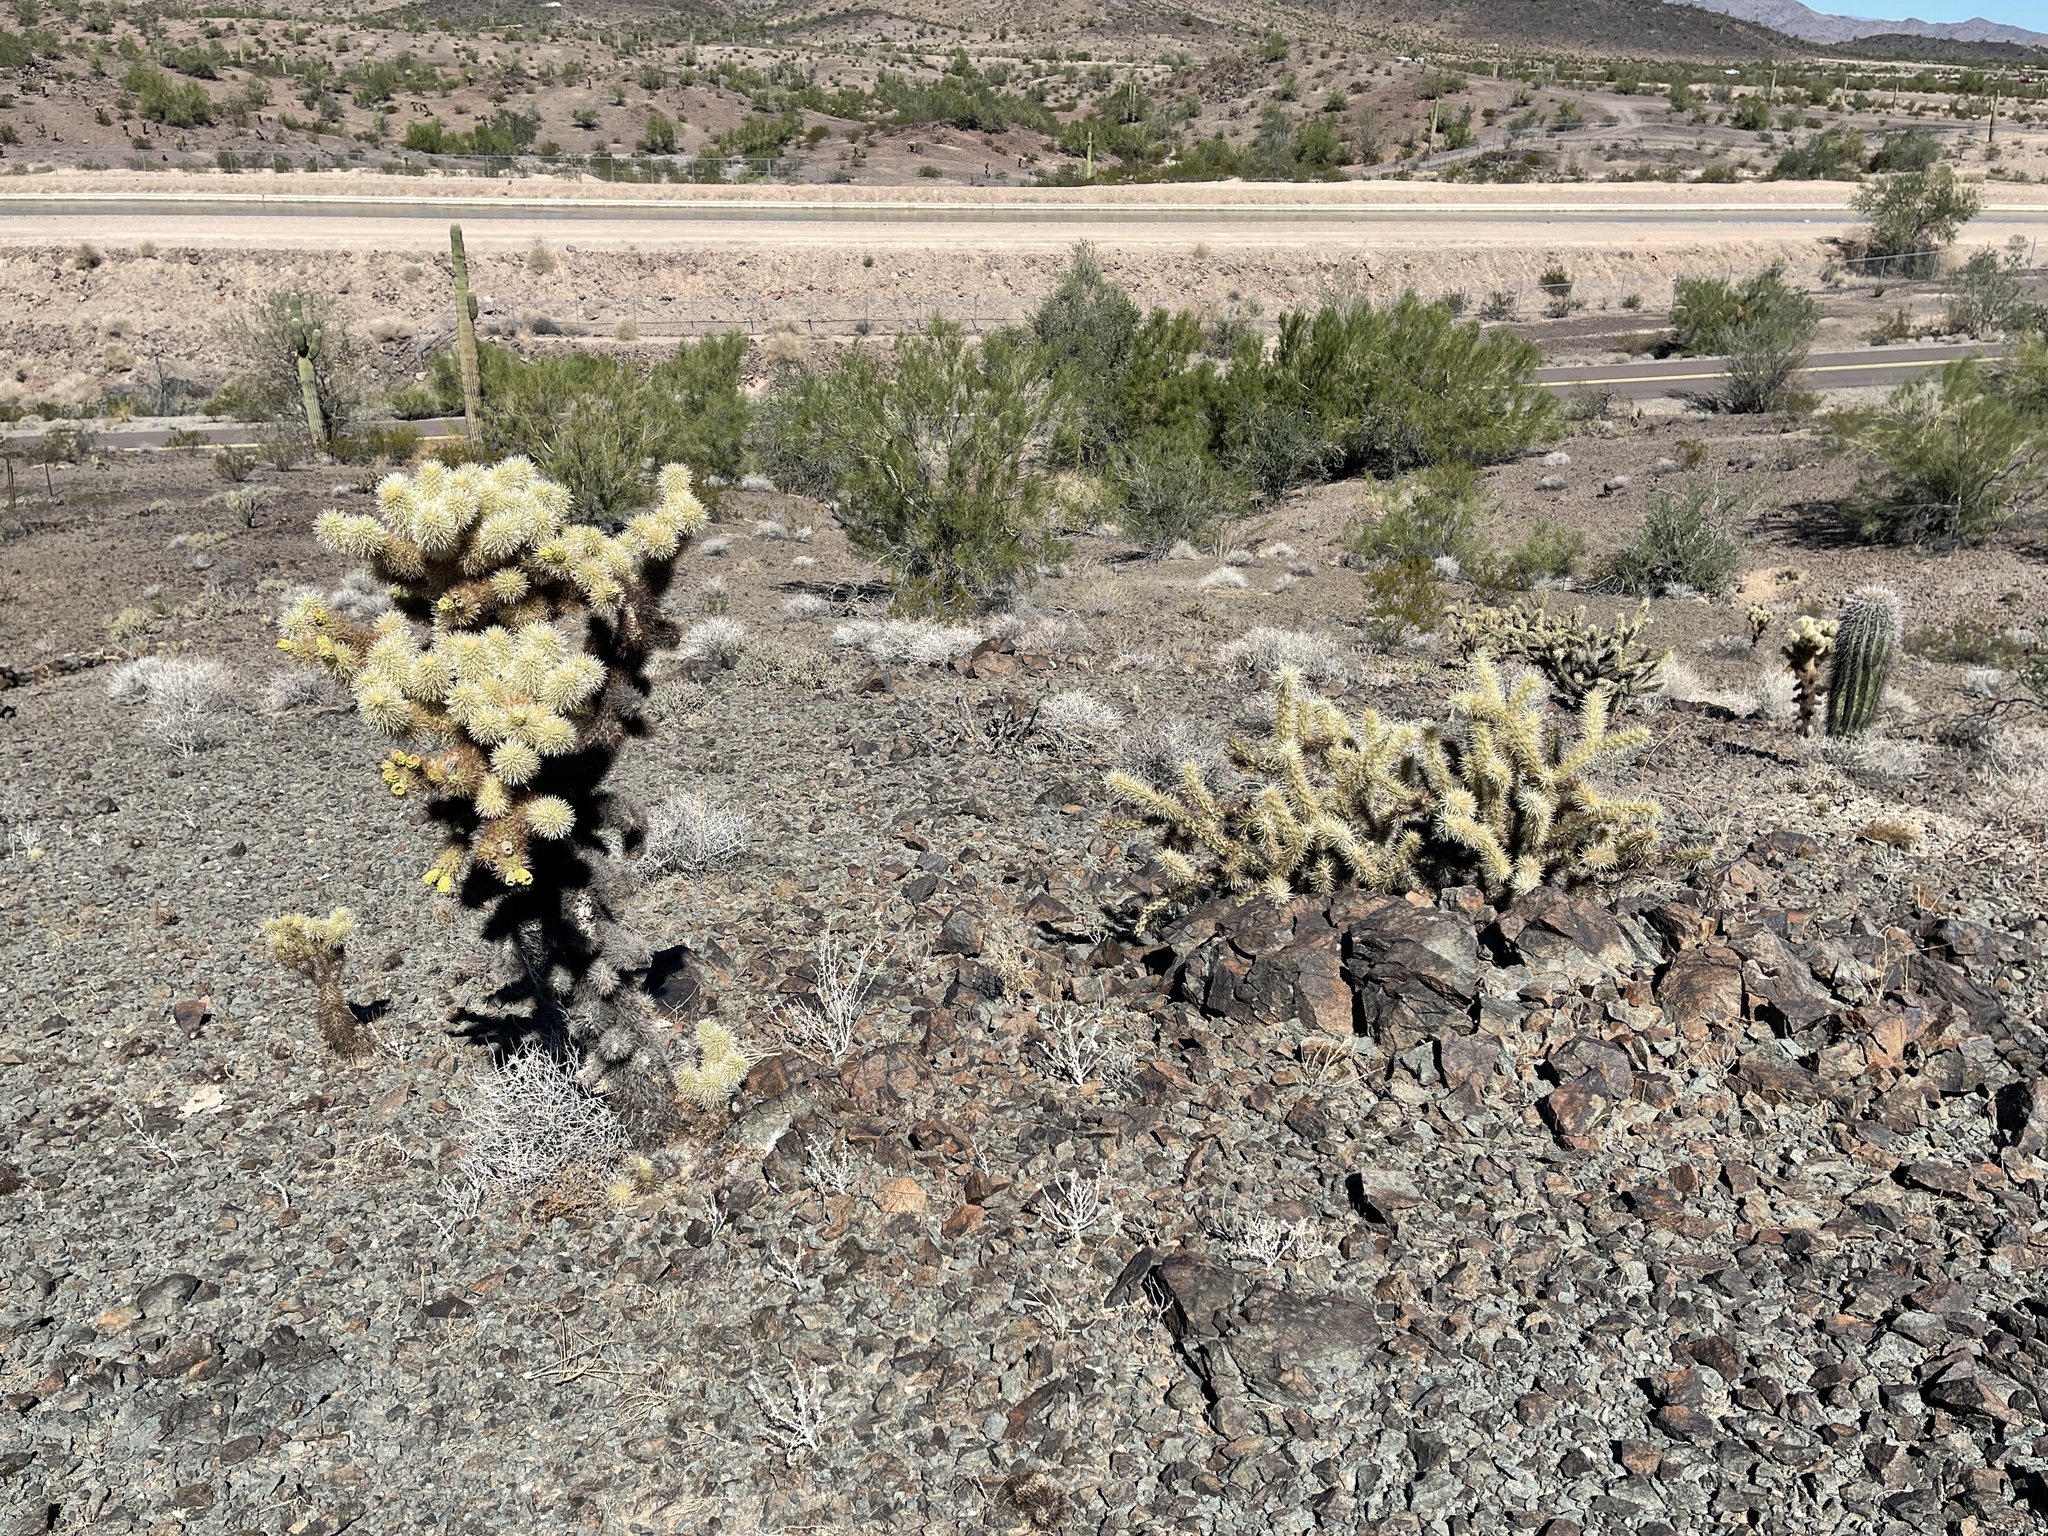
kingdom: Plantae
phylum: Tracheophyta
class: Magnoliopsida
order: Caryophyllales
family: Cactaceae
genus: Cylindropuntia
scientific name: Cylindropuntia acanthocarpa
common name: Buckhorn cholla
